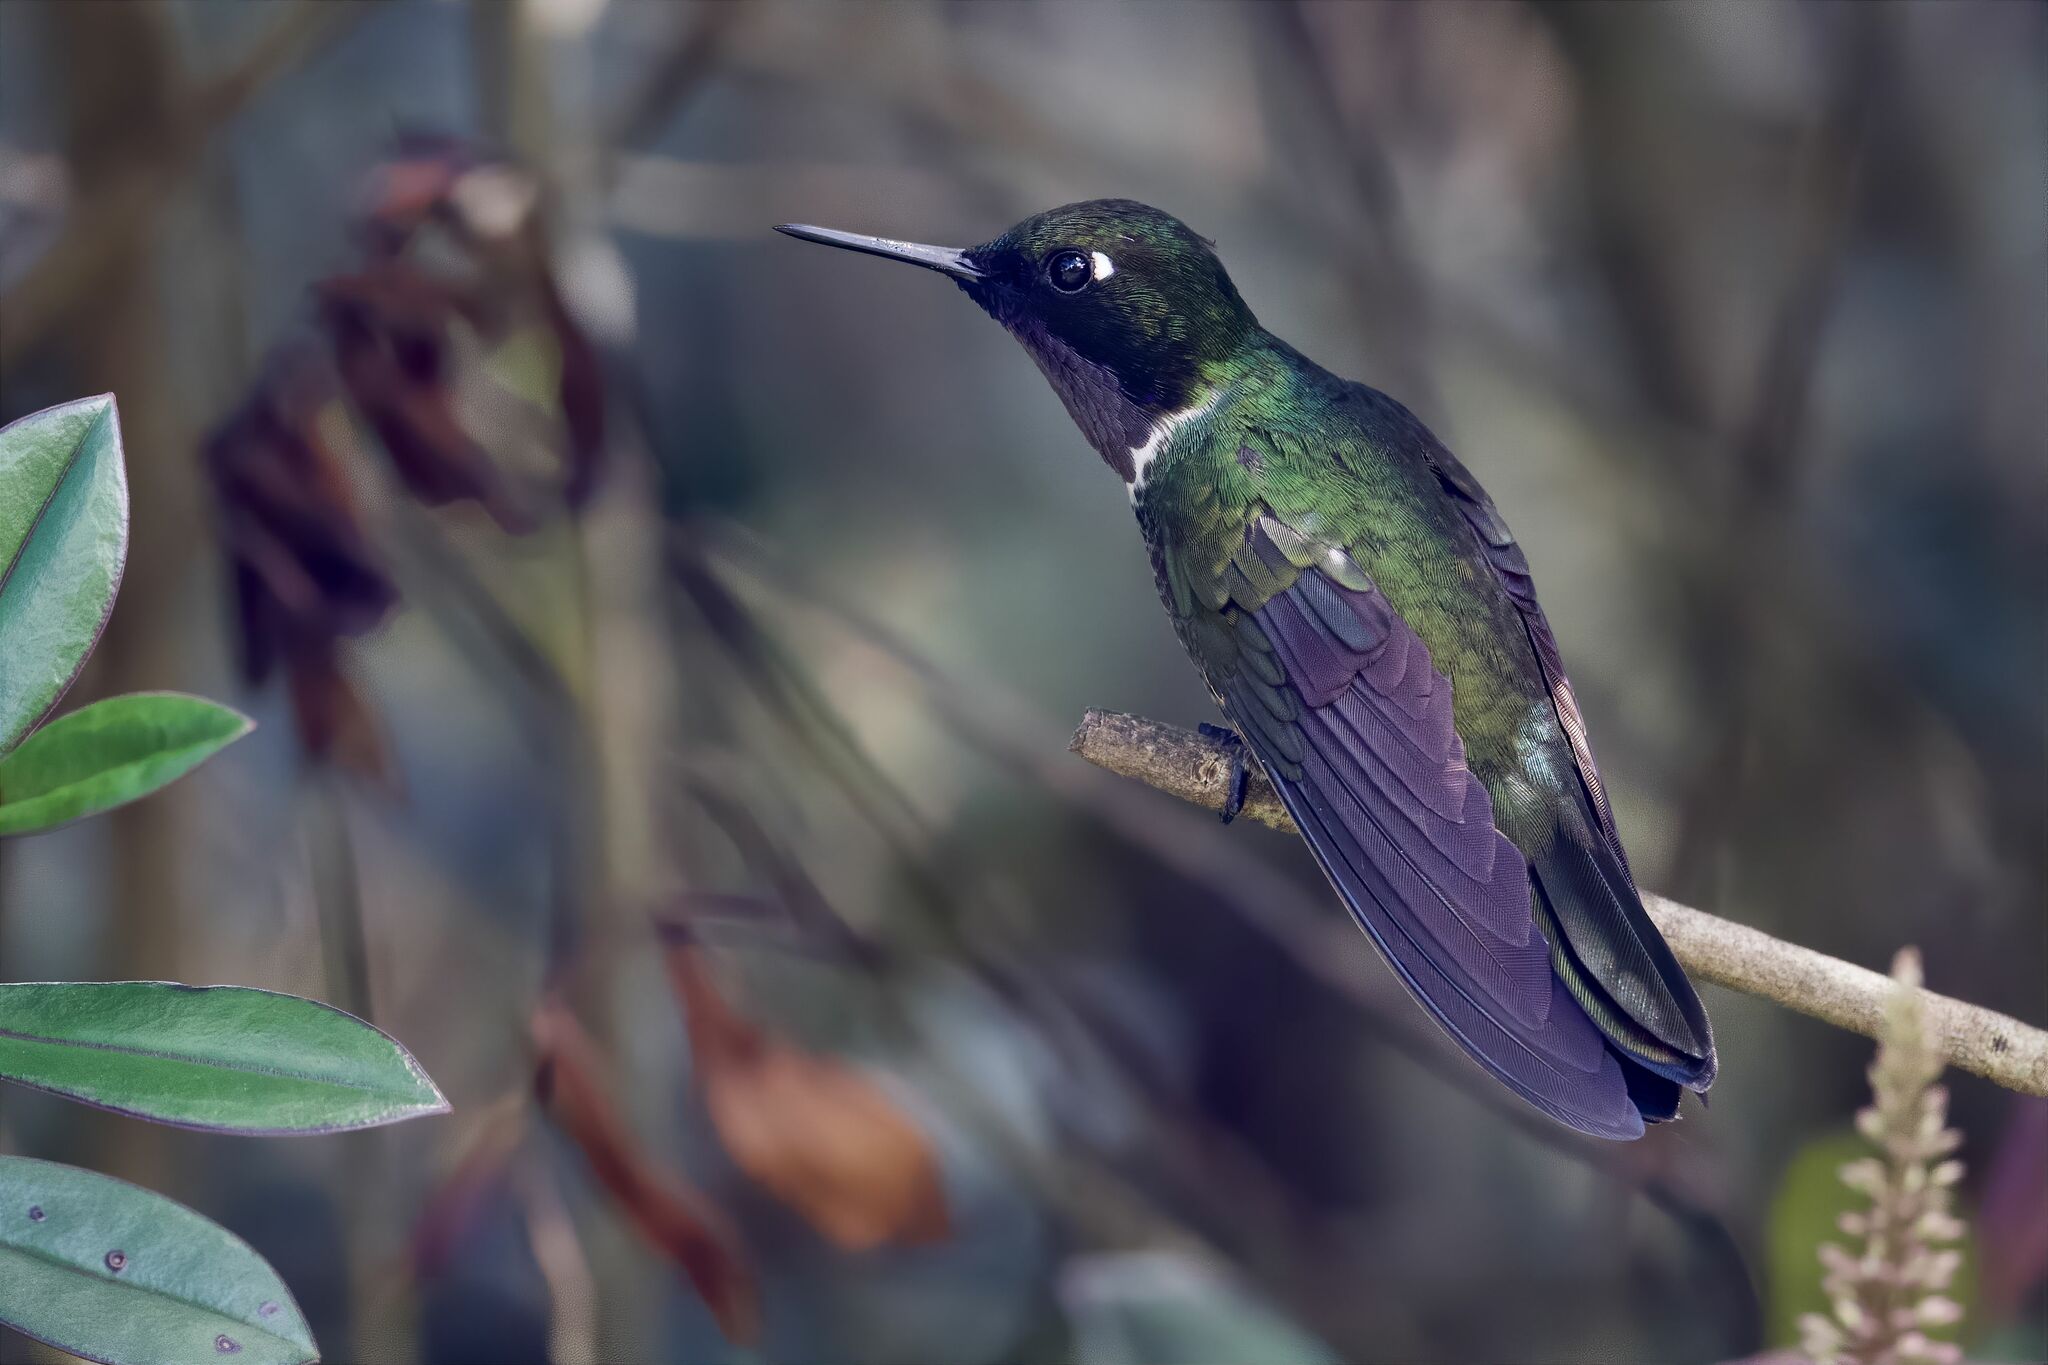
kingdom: Animalia
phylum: Chordata
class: Aves
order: Apodiformes
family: Trochilidae
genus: Heliangelus
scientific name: Heliangelus clarisse
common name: Longuemare's sunangel
